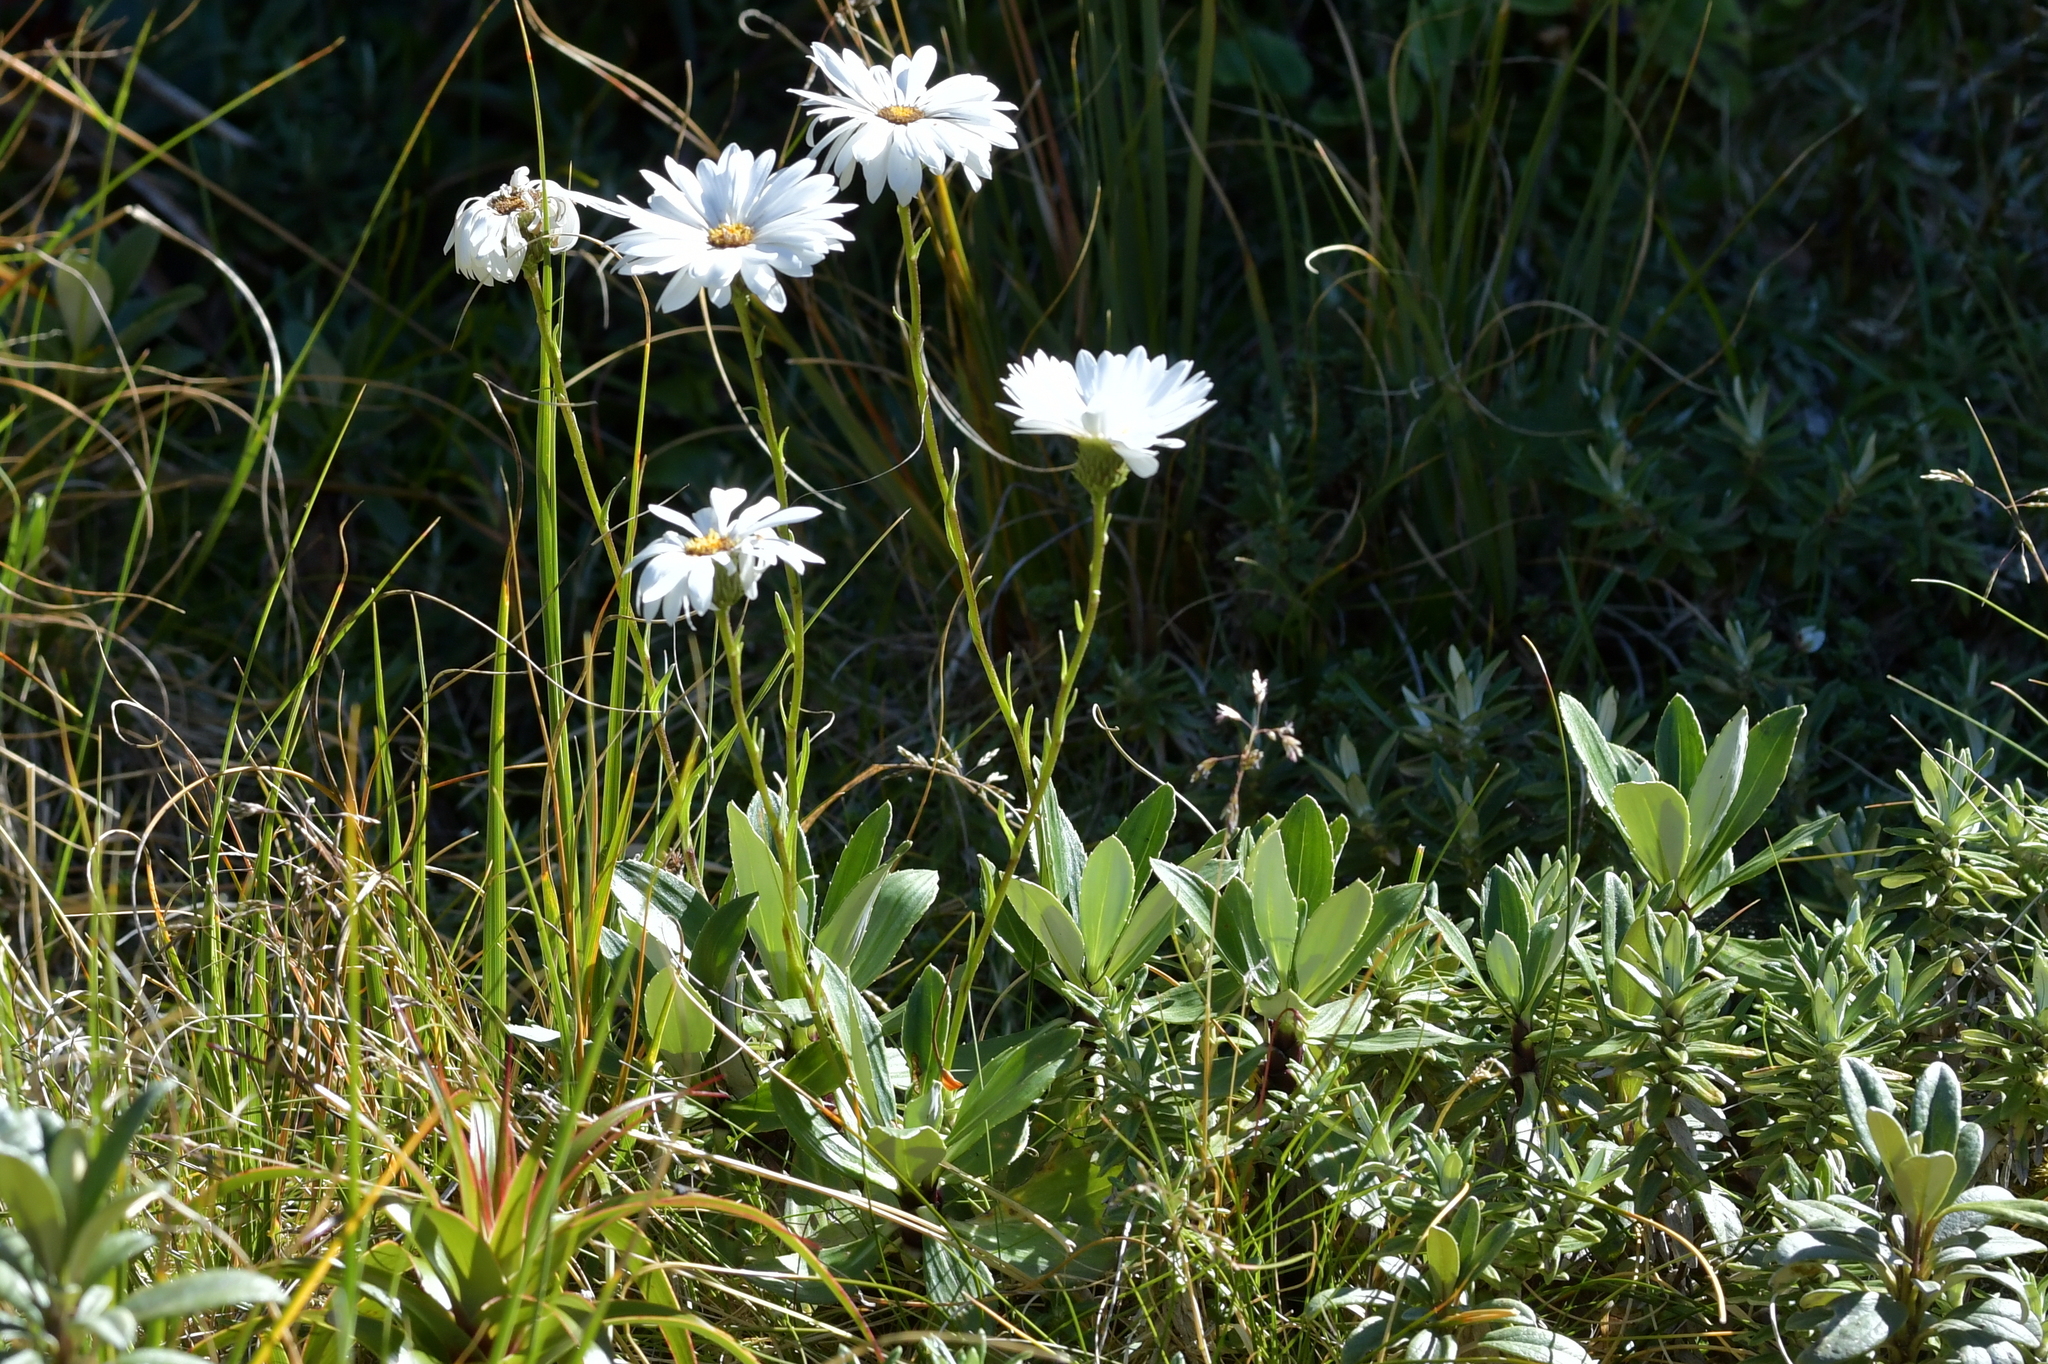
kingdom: Plantae
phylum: Tracheophyta
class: Magnoliopsida
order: Asterales
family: Asteraceae
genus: Celmisia
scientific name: Celmisia durietzii
